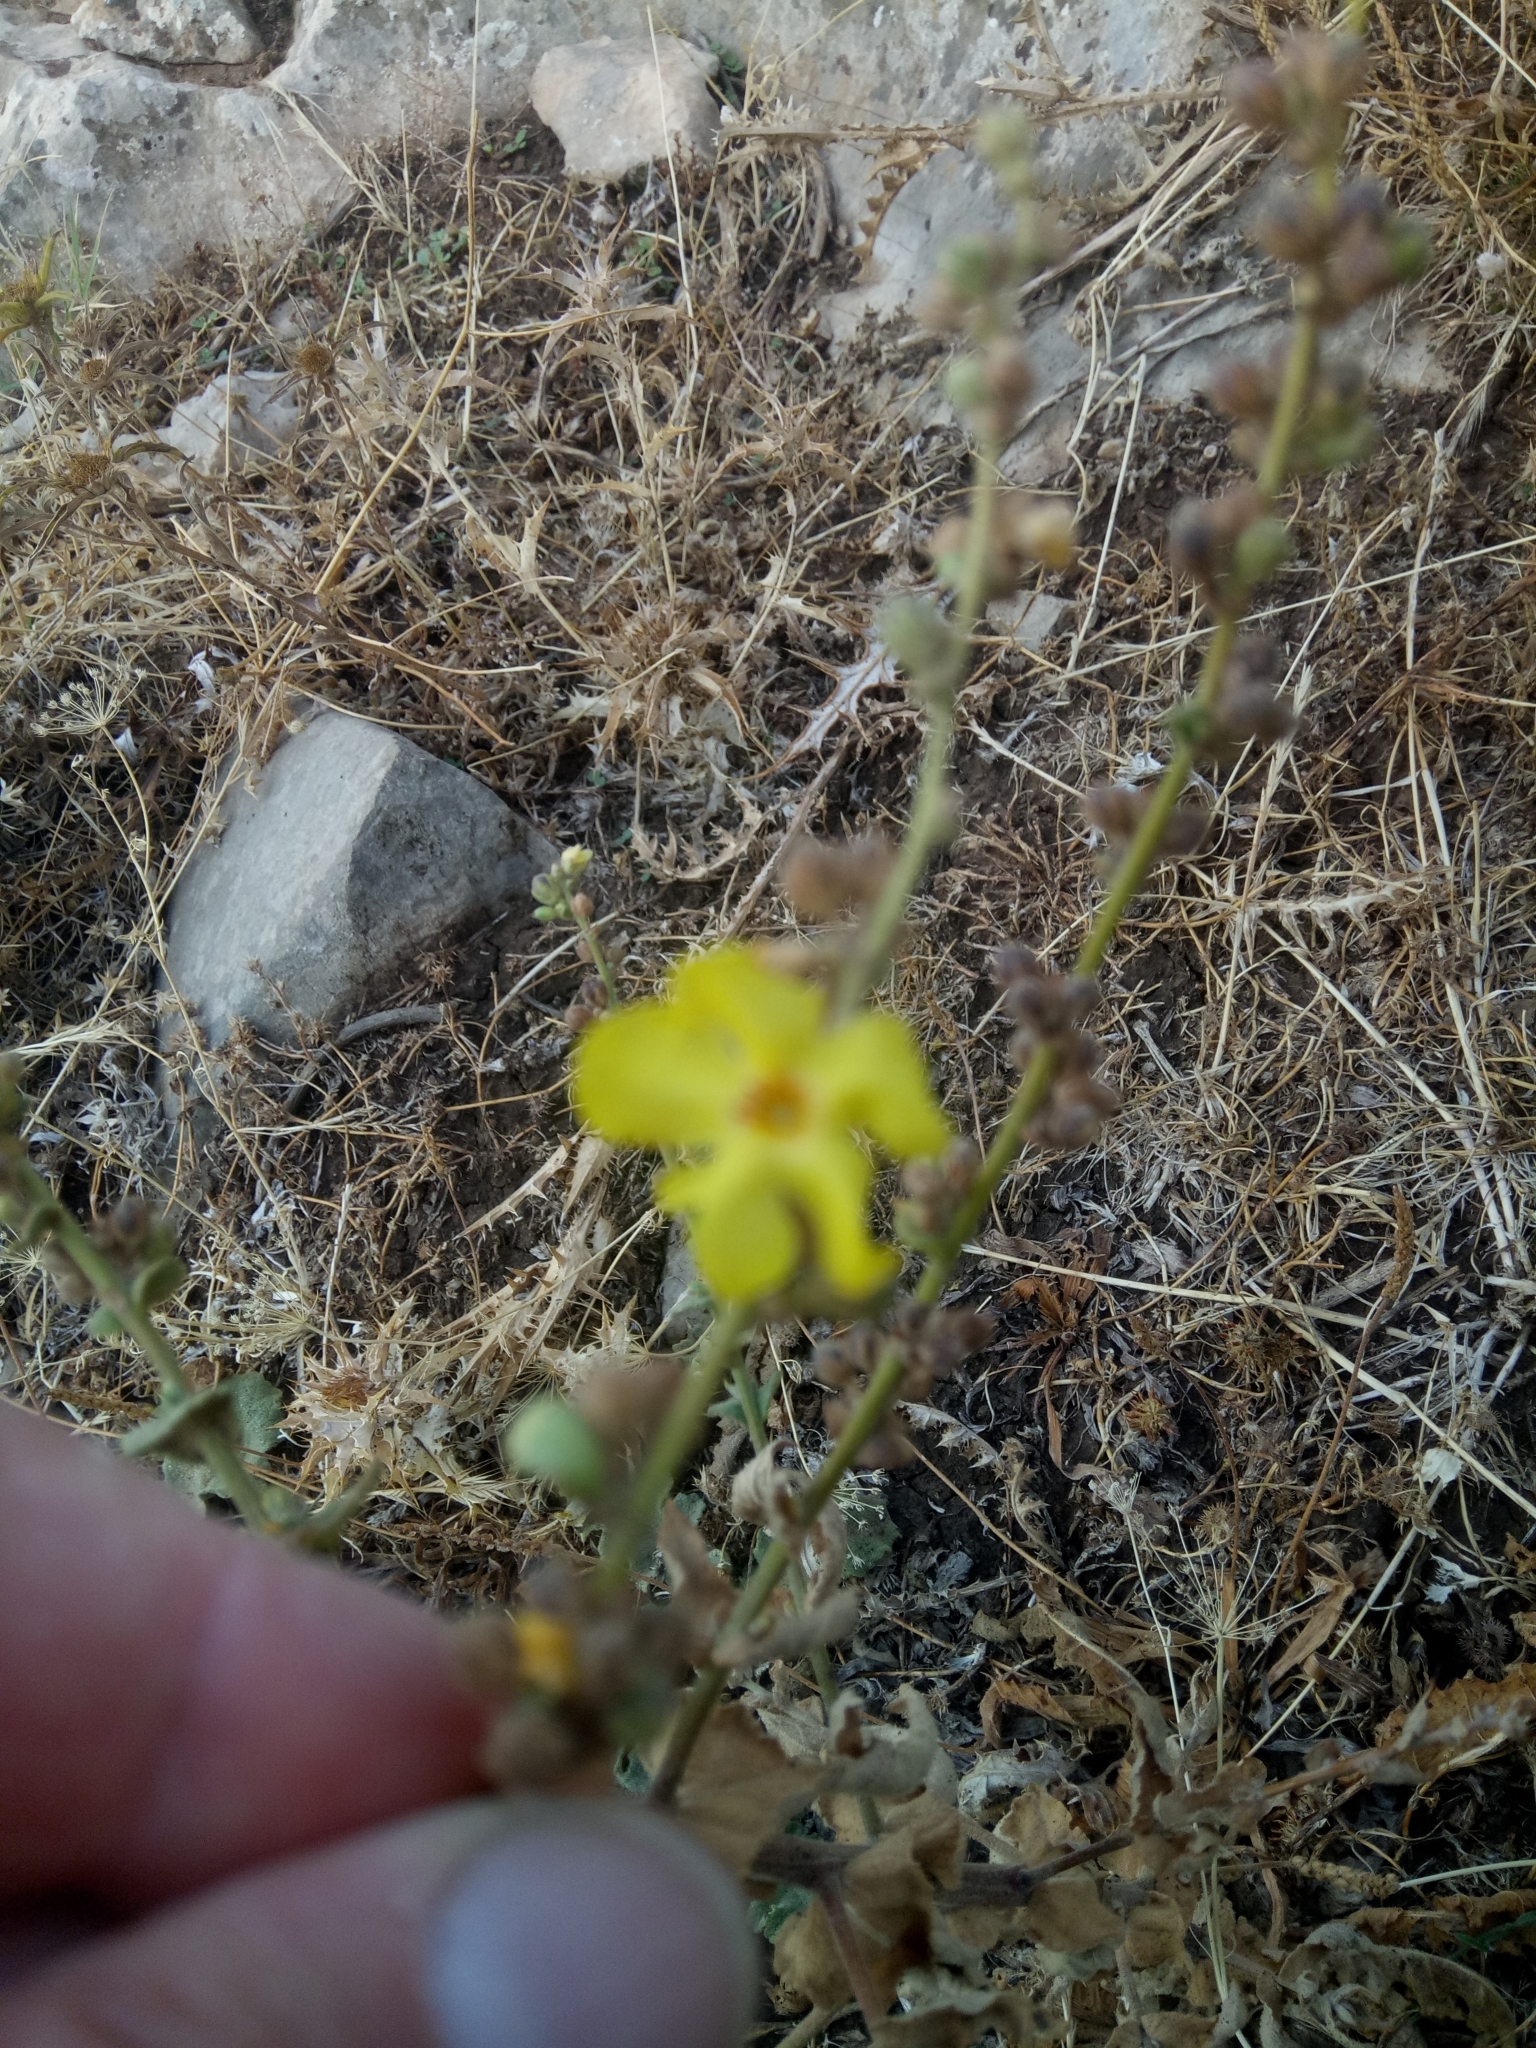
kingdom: Plantae
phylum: Tracheophyta
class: Magnoliopsida
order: Lamiales
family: Scrophulariaceae
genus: Verbascum
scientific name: Verbascum sinuatum
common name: Wavyleaf mullein
